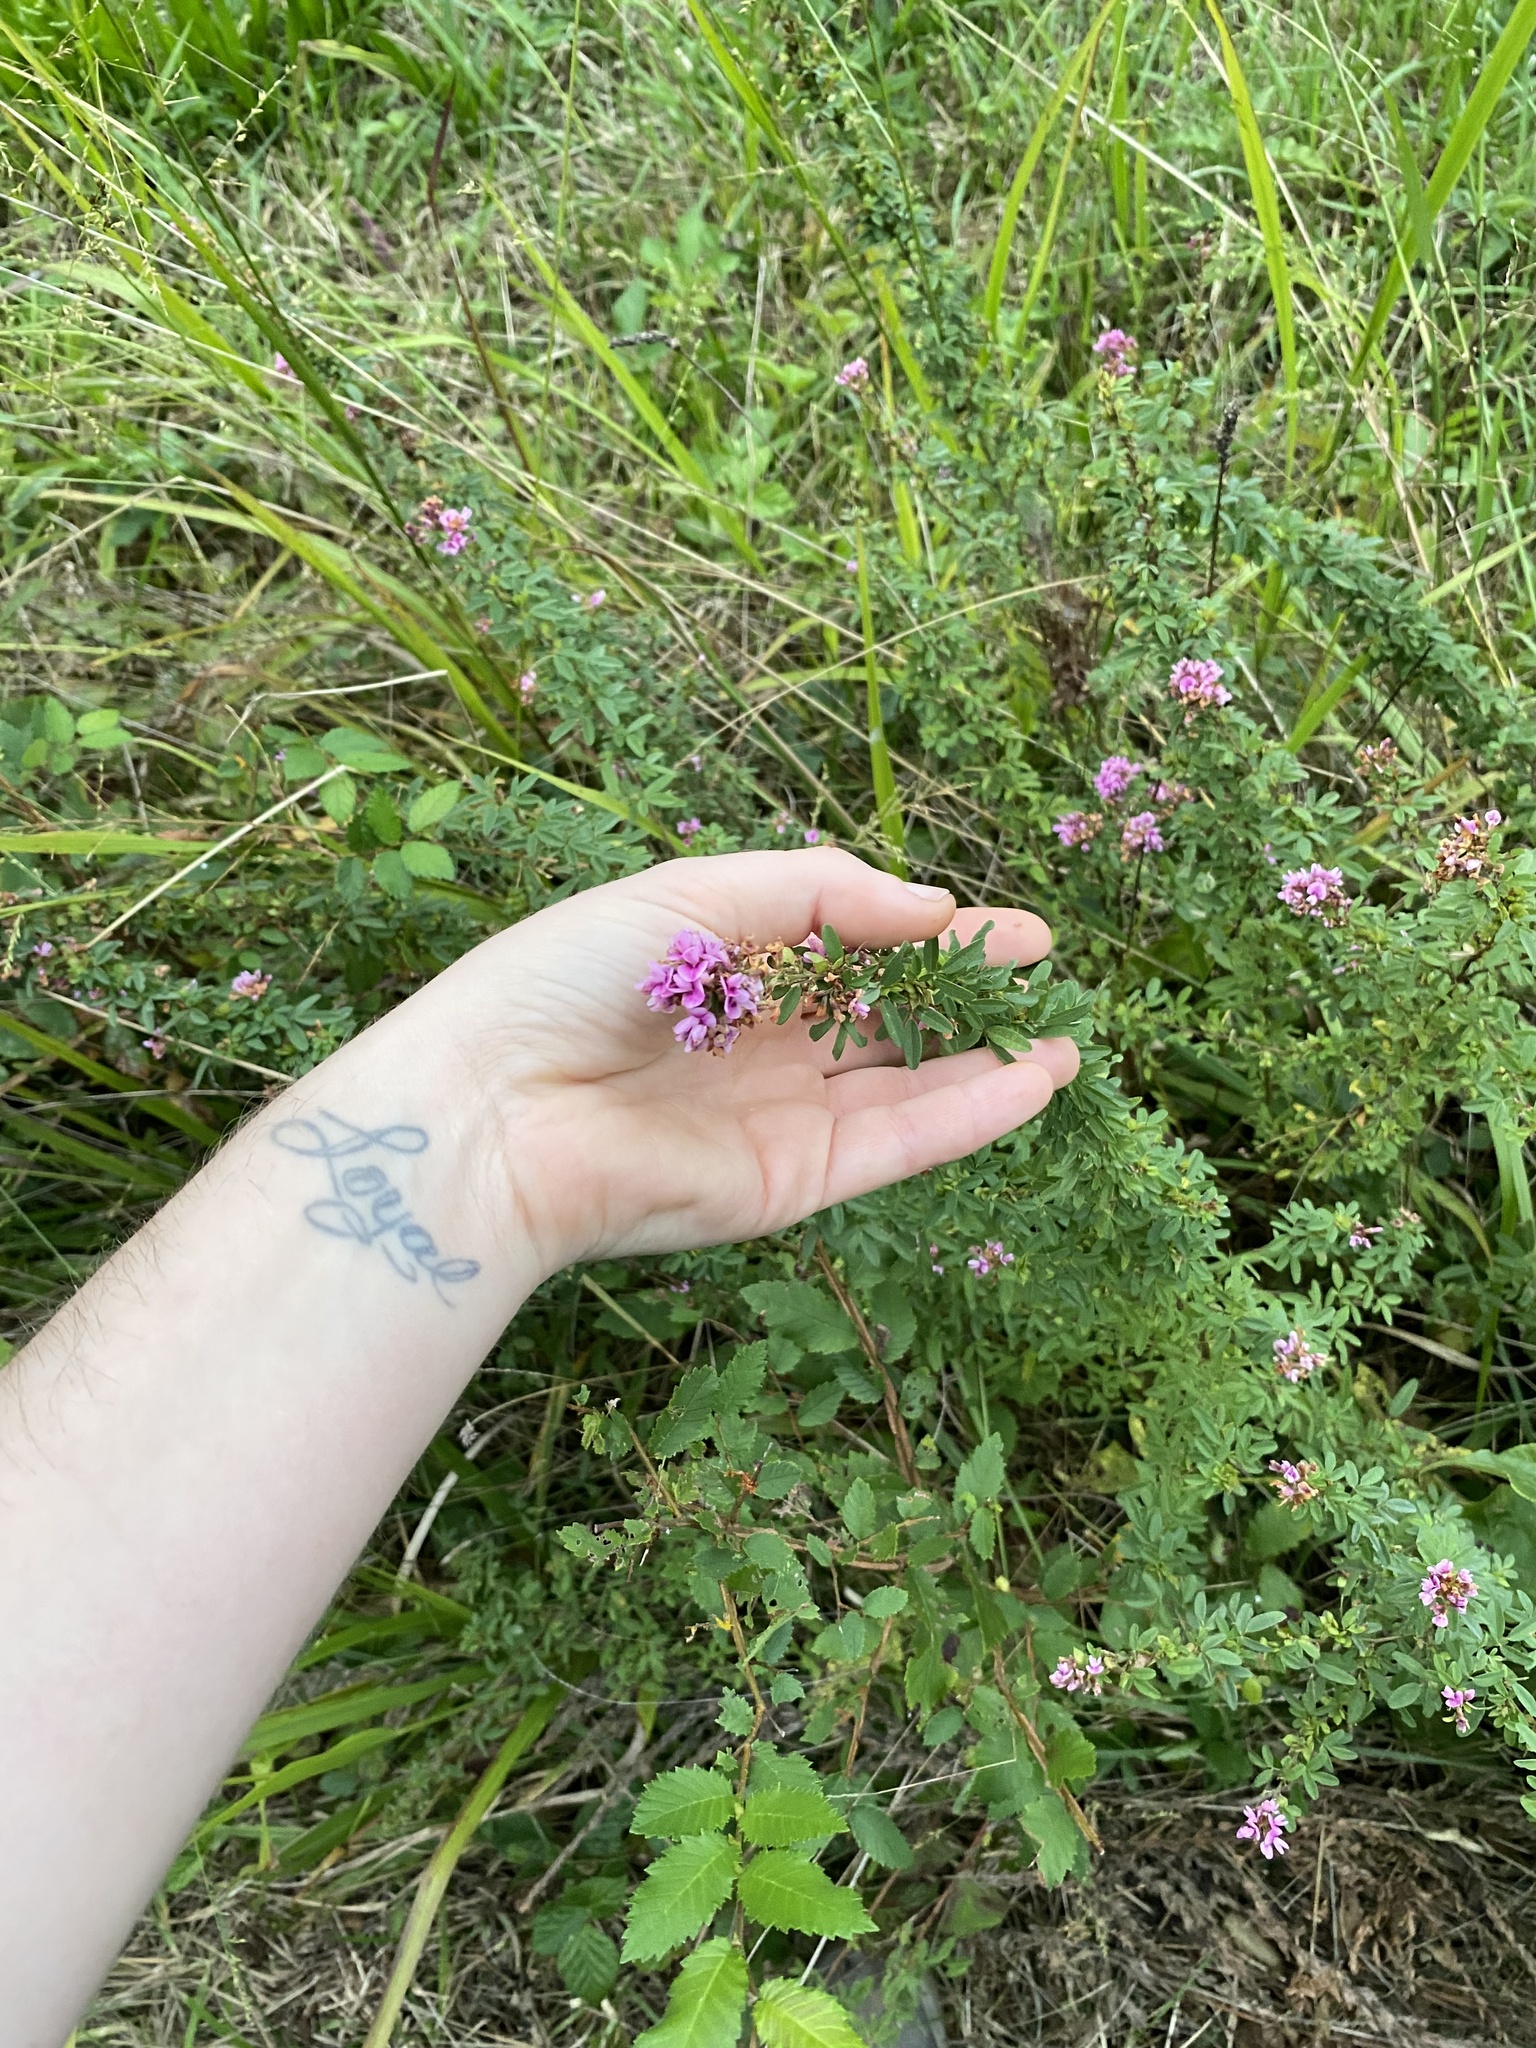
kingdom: Plantae
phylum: Tracheophyta
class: Magnoliopsida
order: Fabales
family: Fabaceae
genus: Lespedeza
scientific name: Lespedeza virginica
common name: Slender bush-clover
